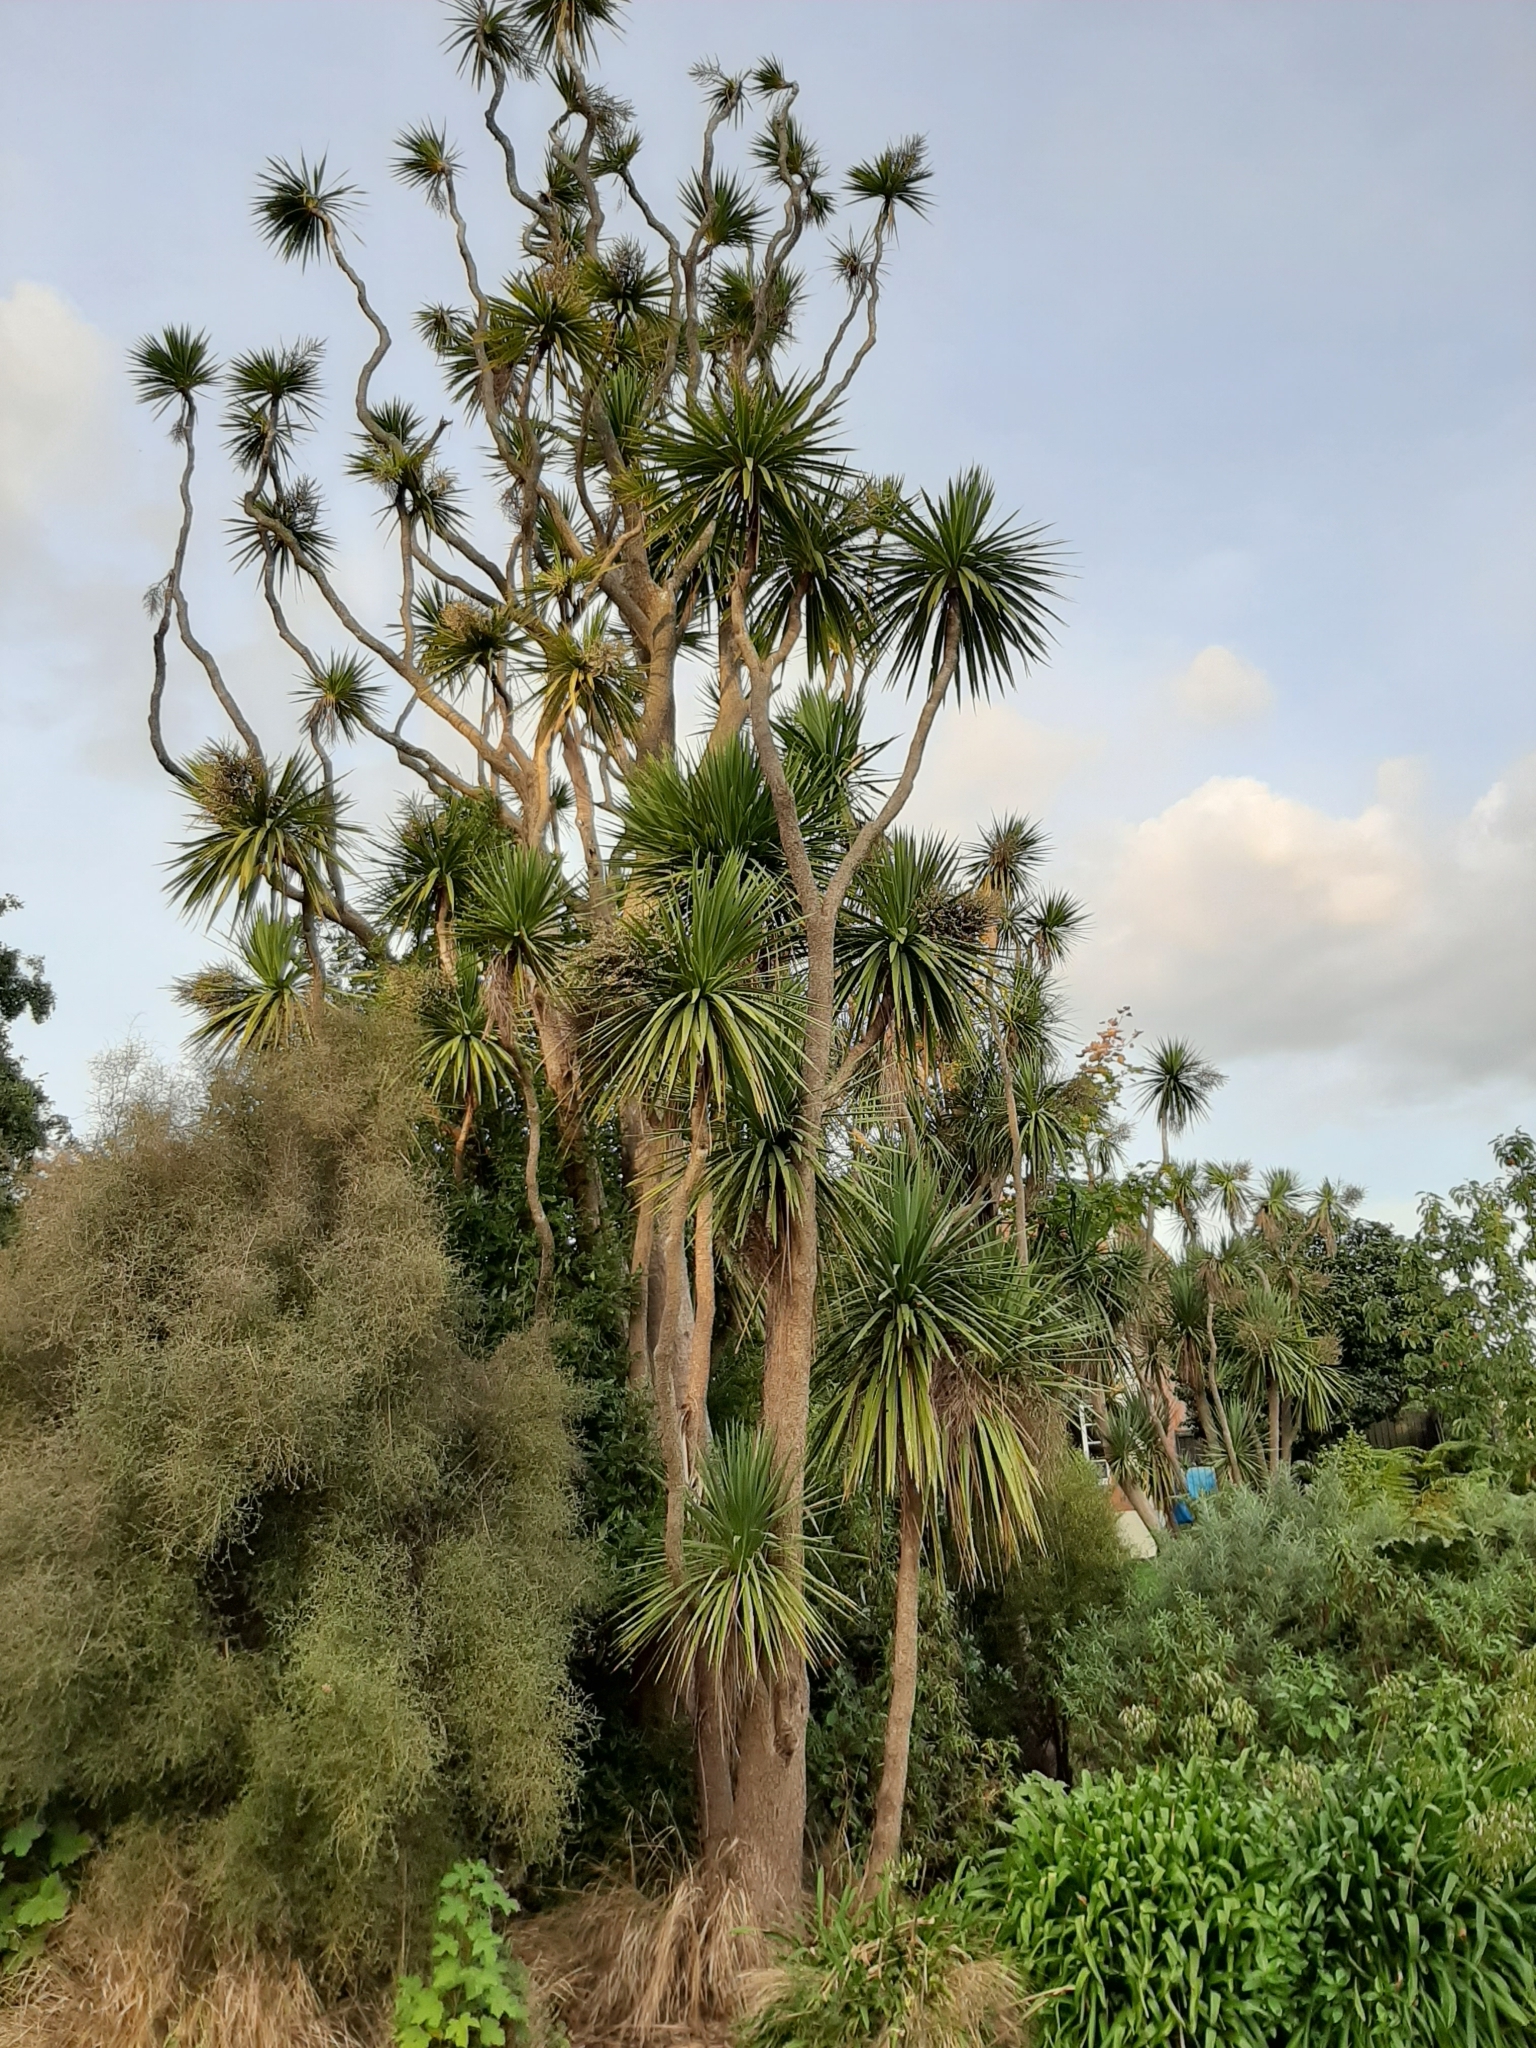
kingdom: Plantae
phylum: Tracheophyta
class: Liliopsida
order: Asparagales
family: Asparagaceae
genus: Cordyline
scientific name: Cordyline australis
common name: Cabbage-palm
